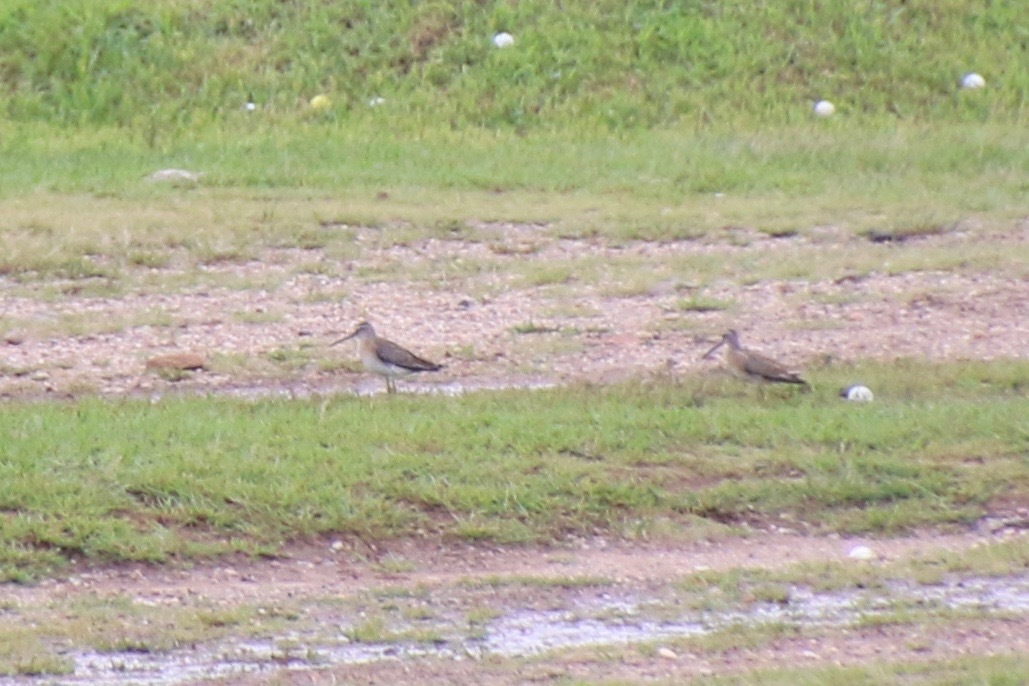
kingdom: Animalia
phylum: Chordata
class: Aves
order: Charadriiformes
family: Scolopacidae
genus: Limnodromus
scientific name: Limnodromus griseus
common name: Short-billed dowitcher
